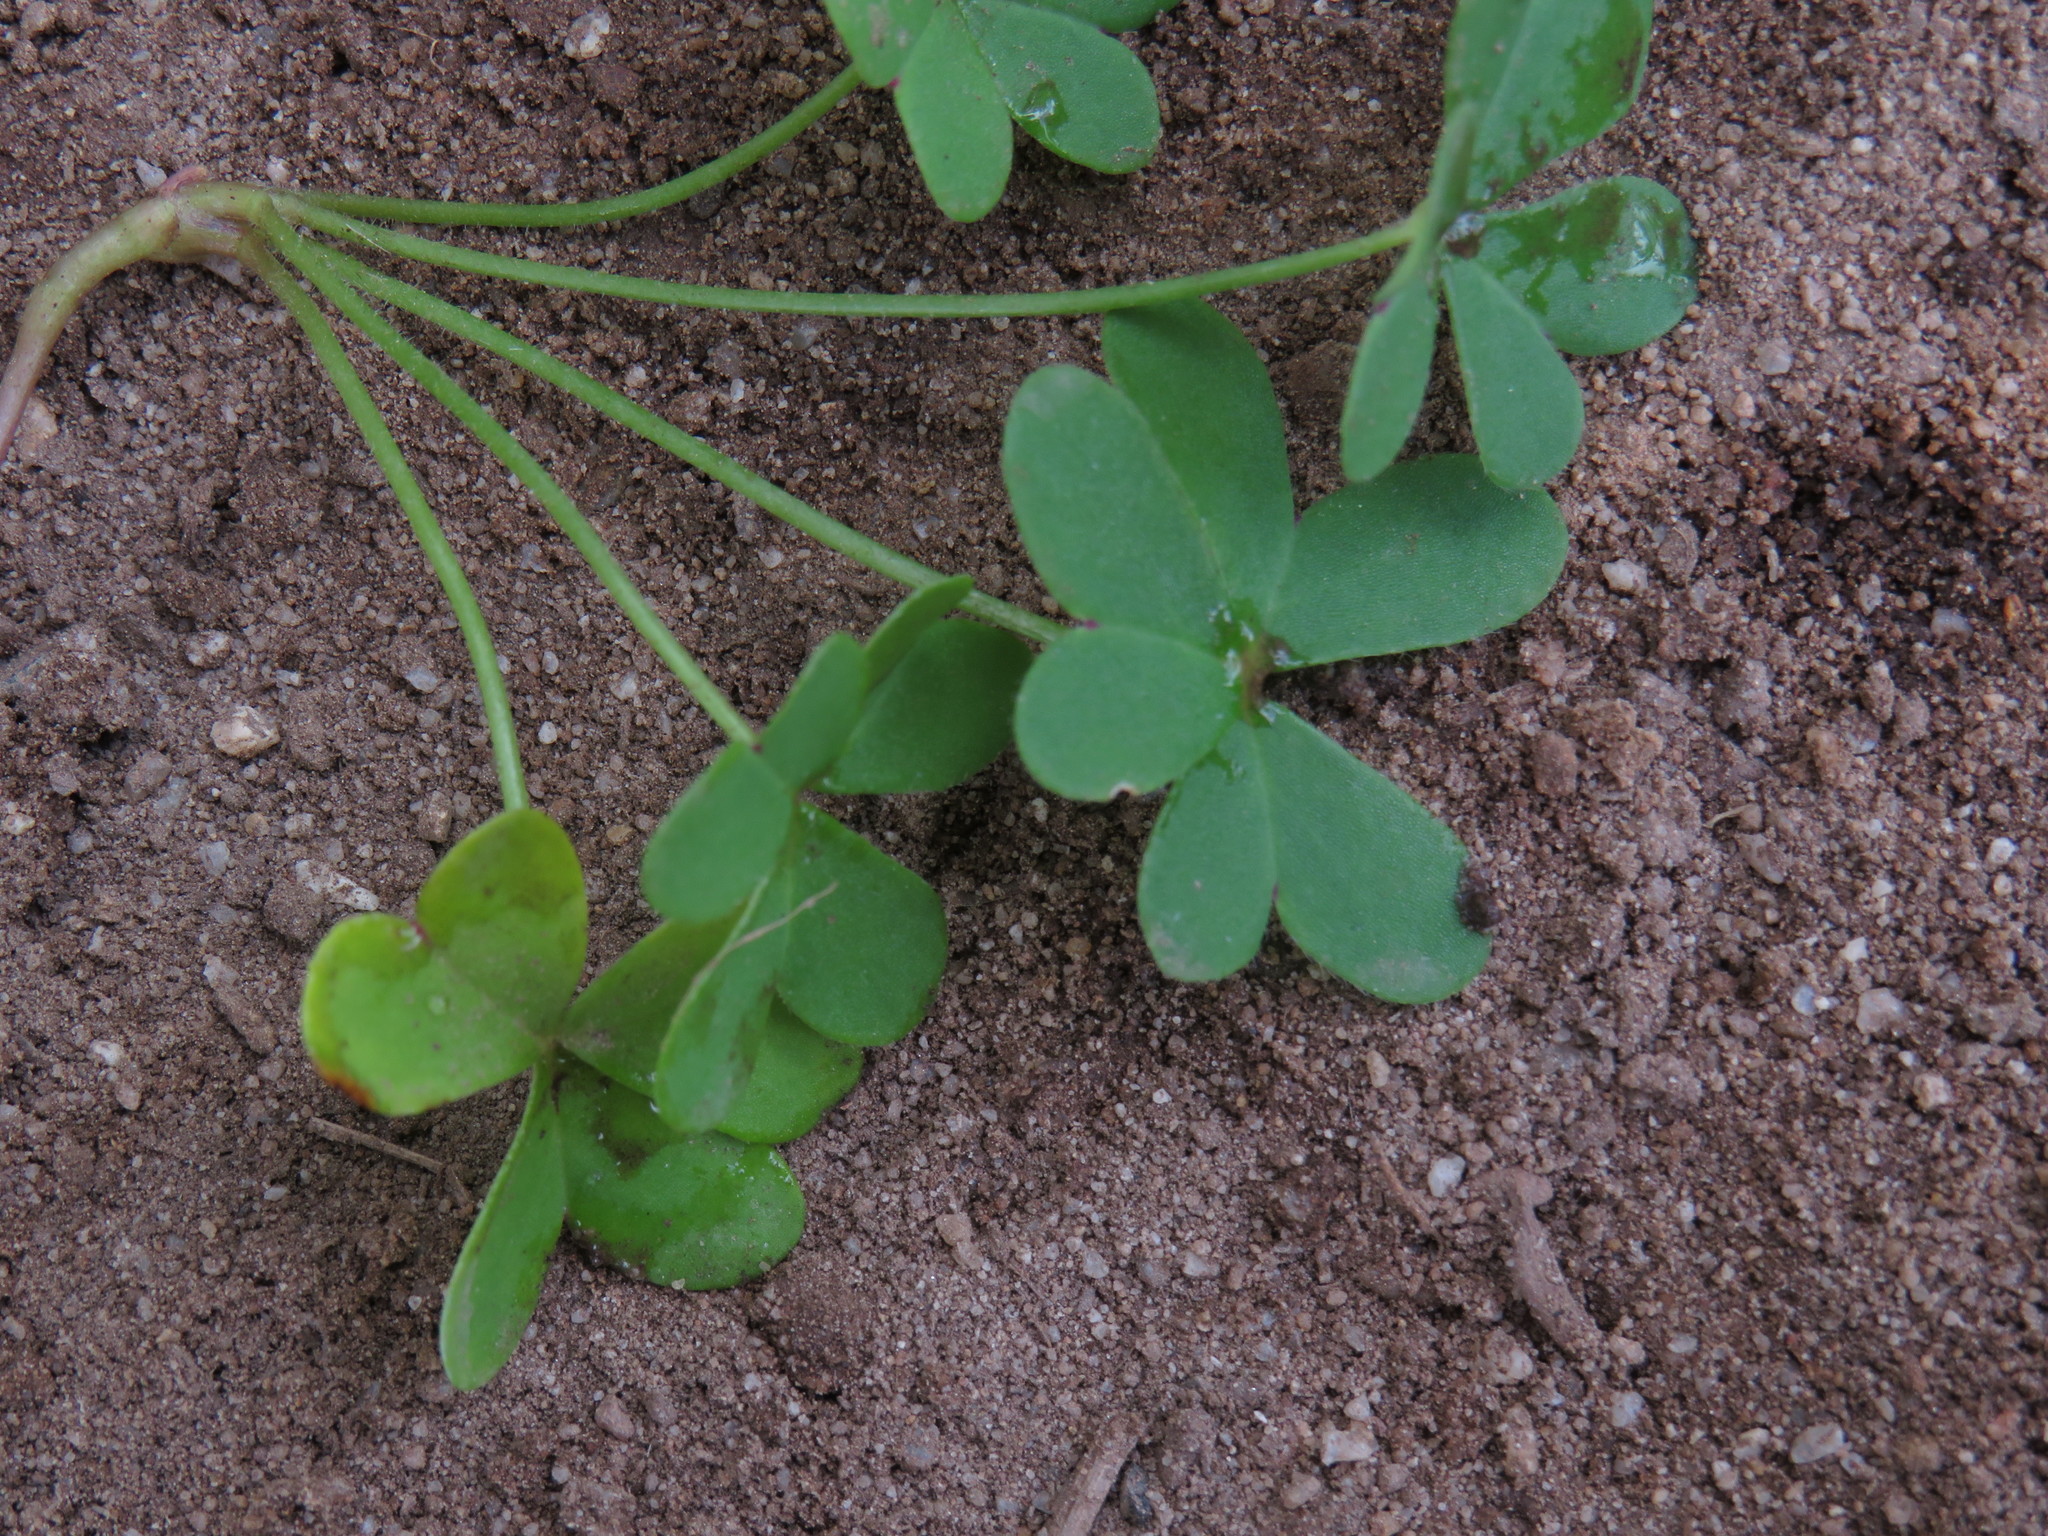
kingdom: Plantae
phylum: Tracheophyta
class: Magnoliopsida
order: Oxalidales
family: Oxalidaceae
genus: Oxalis
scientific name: Oxalis pes-caprae
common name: Bermuda-buttercup
